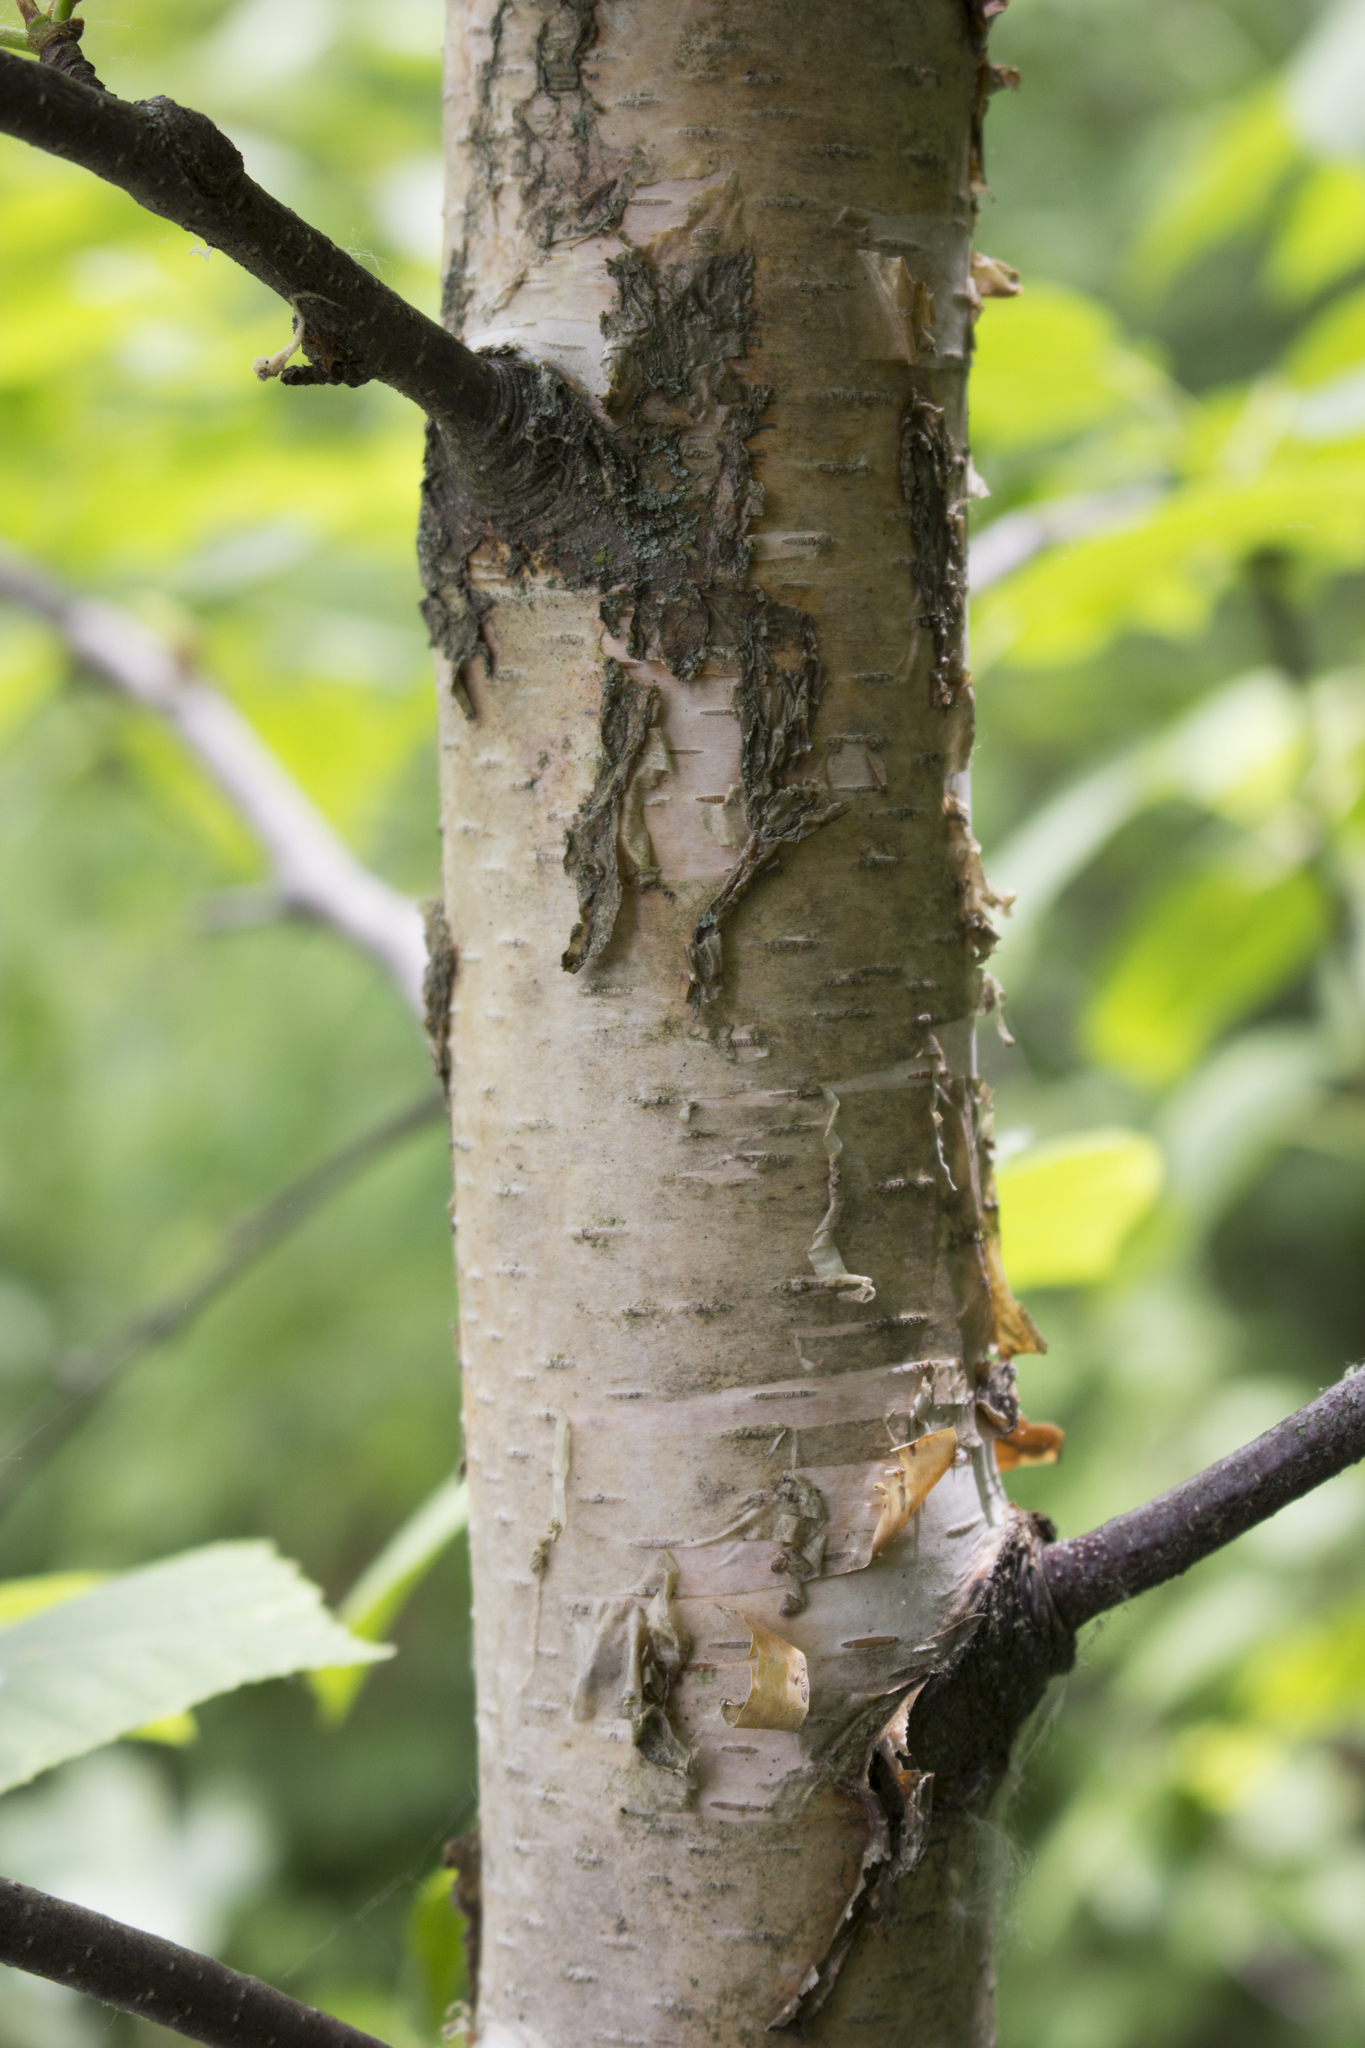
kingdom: Plantae
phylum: Tracheophyta
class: Magnoliopsida
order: Fagales
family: Betulaceae
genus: Betula
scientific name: Betula papyrifera
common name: Paper birch
